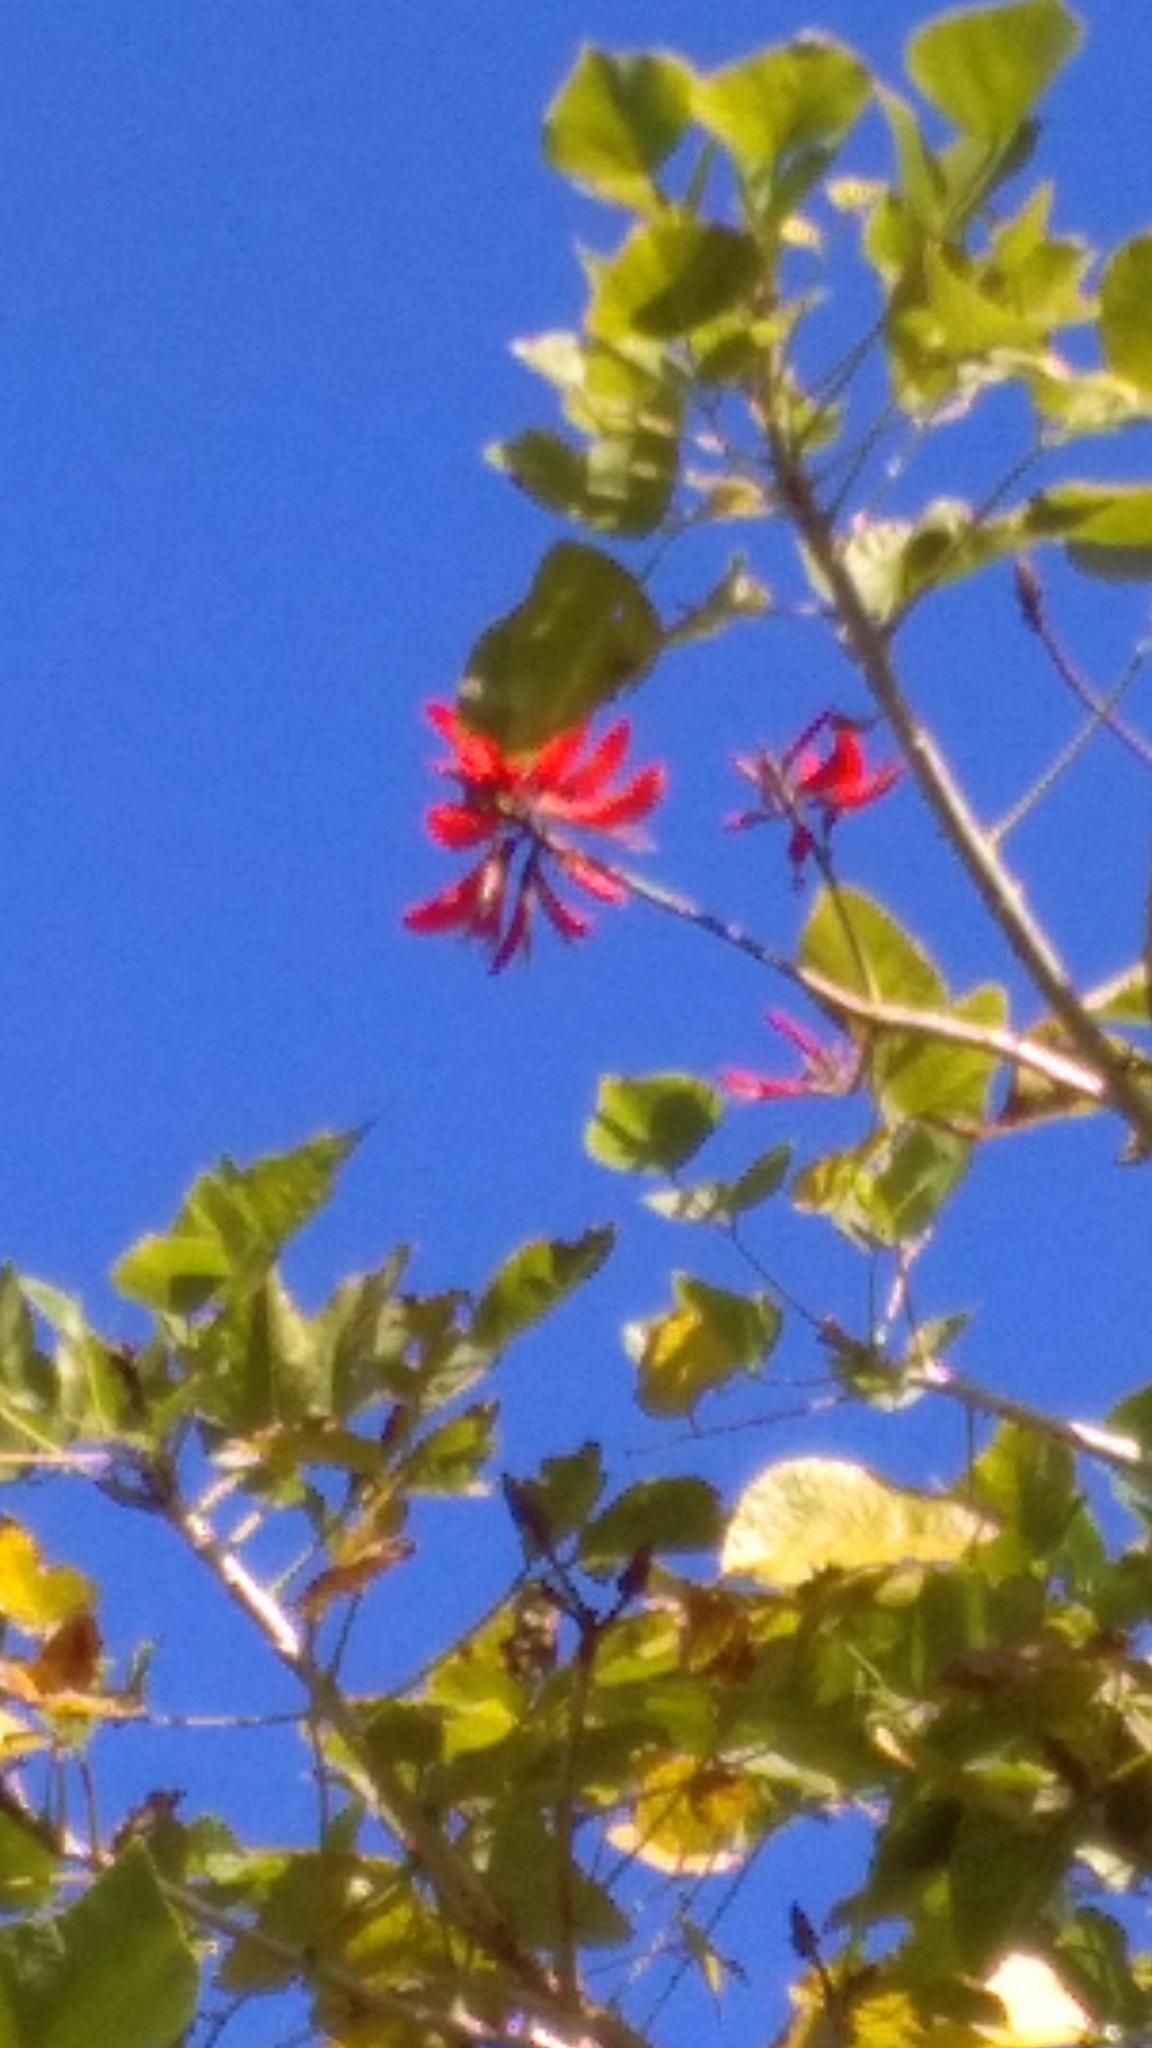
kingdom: Plantae
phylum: Tracheophyta
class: Magnoliopsida
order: Fabales
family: Fabaceae
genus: Erythrina
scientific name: Erythrina sykesii
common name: Coraltree
